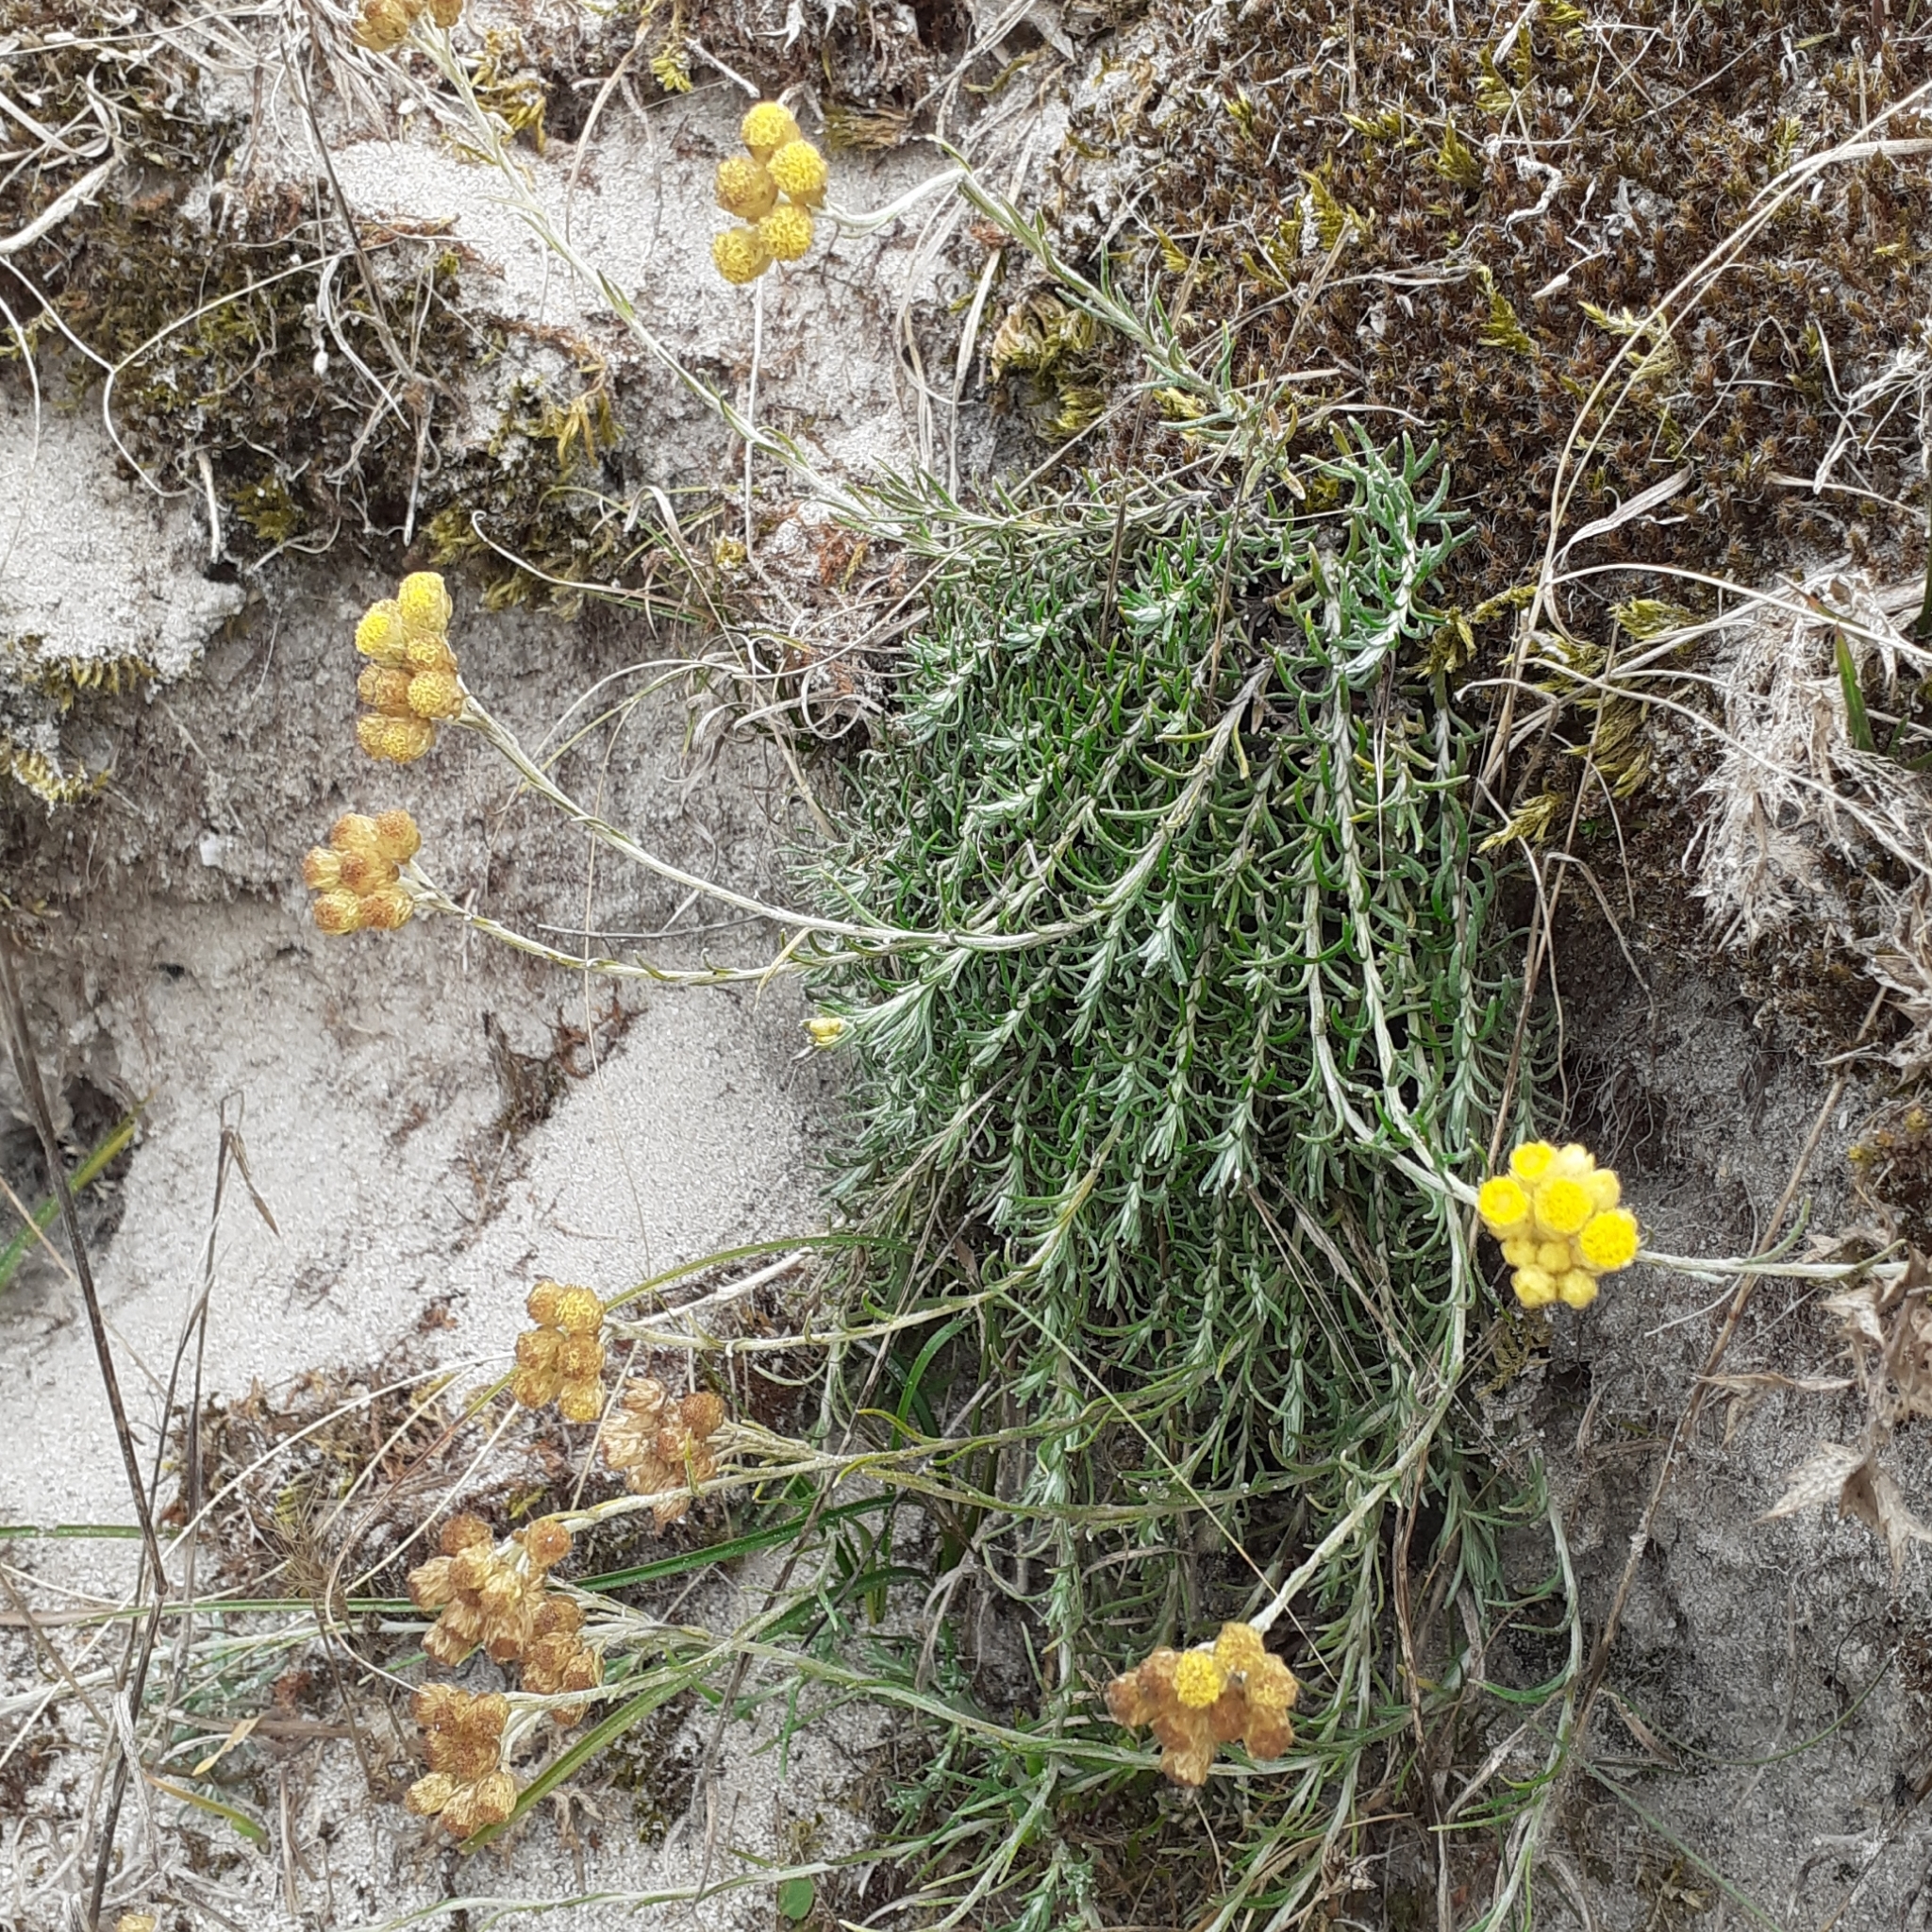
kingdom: Plantae
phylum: Tracheophyta
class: Magnoliopsida
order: Asterales
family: Asteraceae
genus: Helichrysum
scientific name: Helichrysum stoechas
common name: Goldilocks
